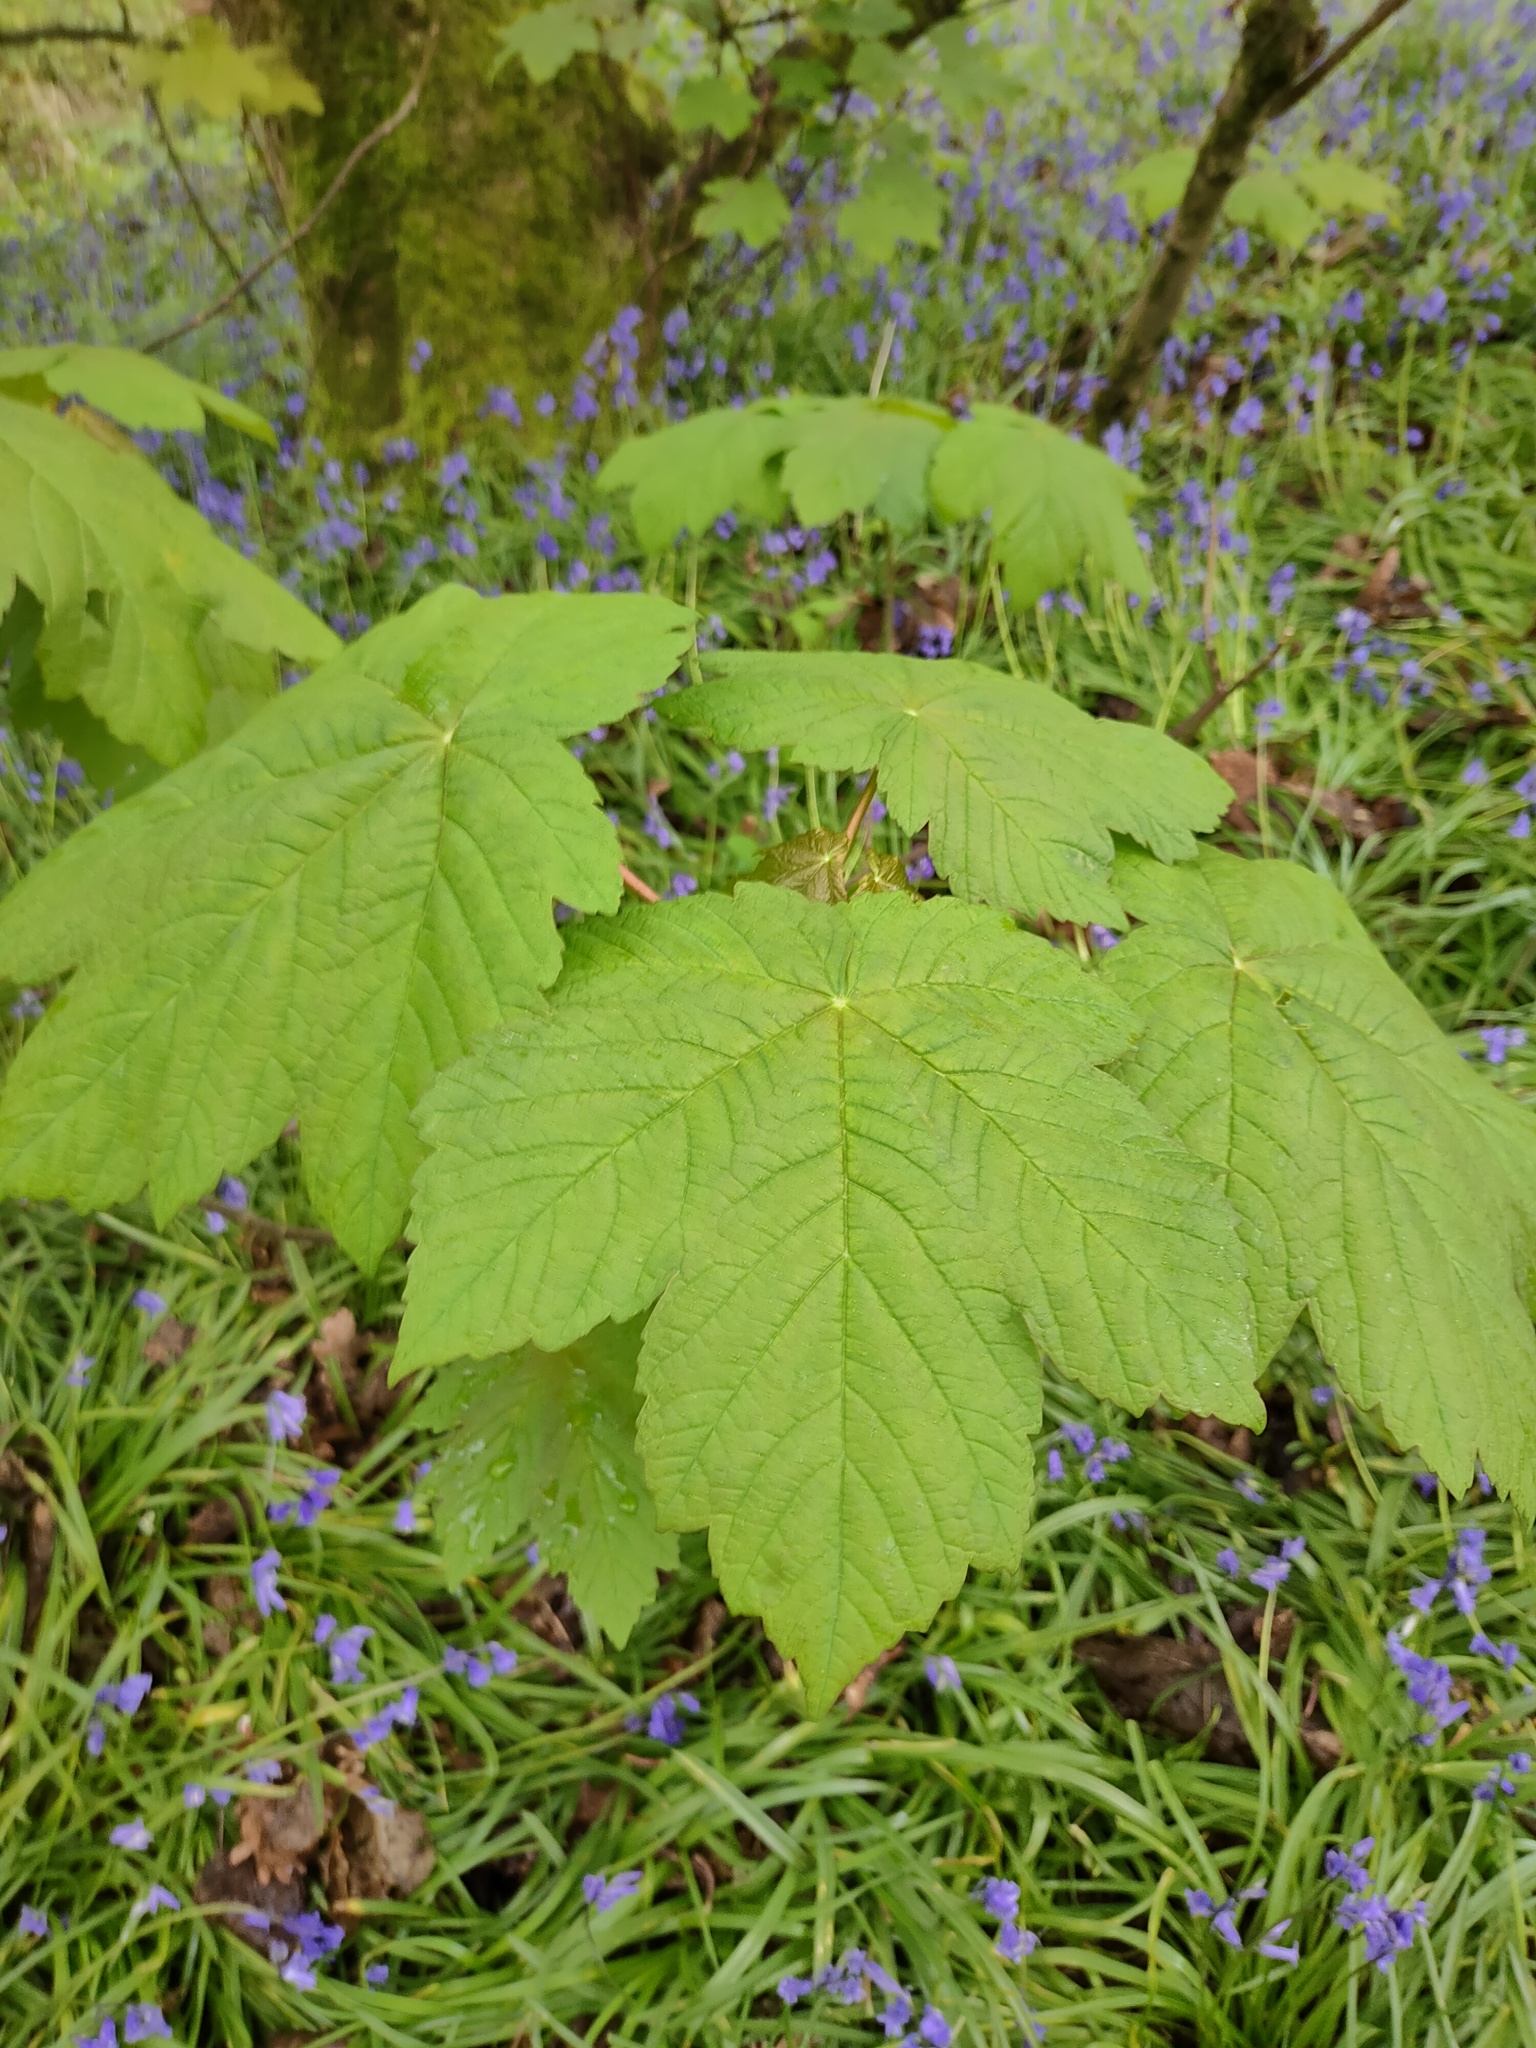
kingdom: Plantae
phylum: Tracheophyta
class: Magnoliopsida
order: Sapindales
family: Sapindaceae
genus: Acer
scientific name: Acer pseudoplatanus
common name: Sycamore
